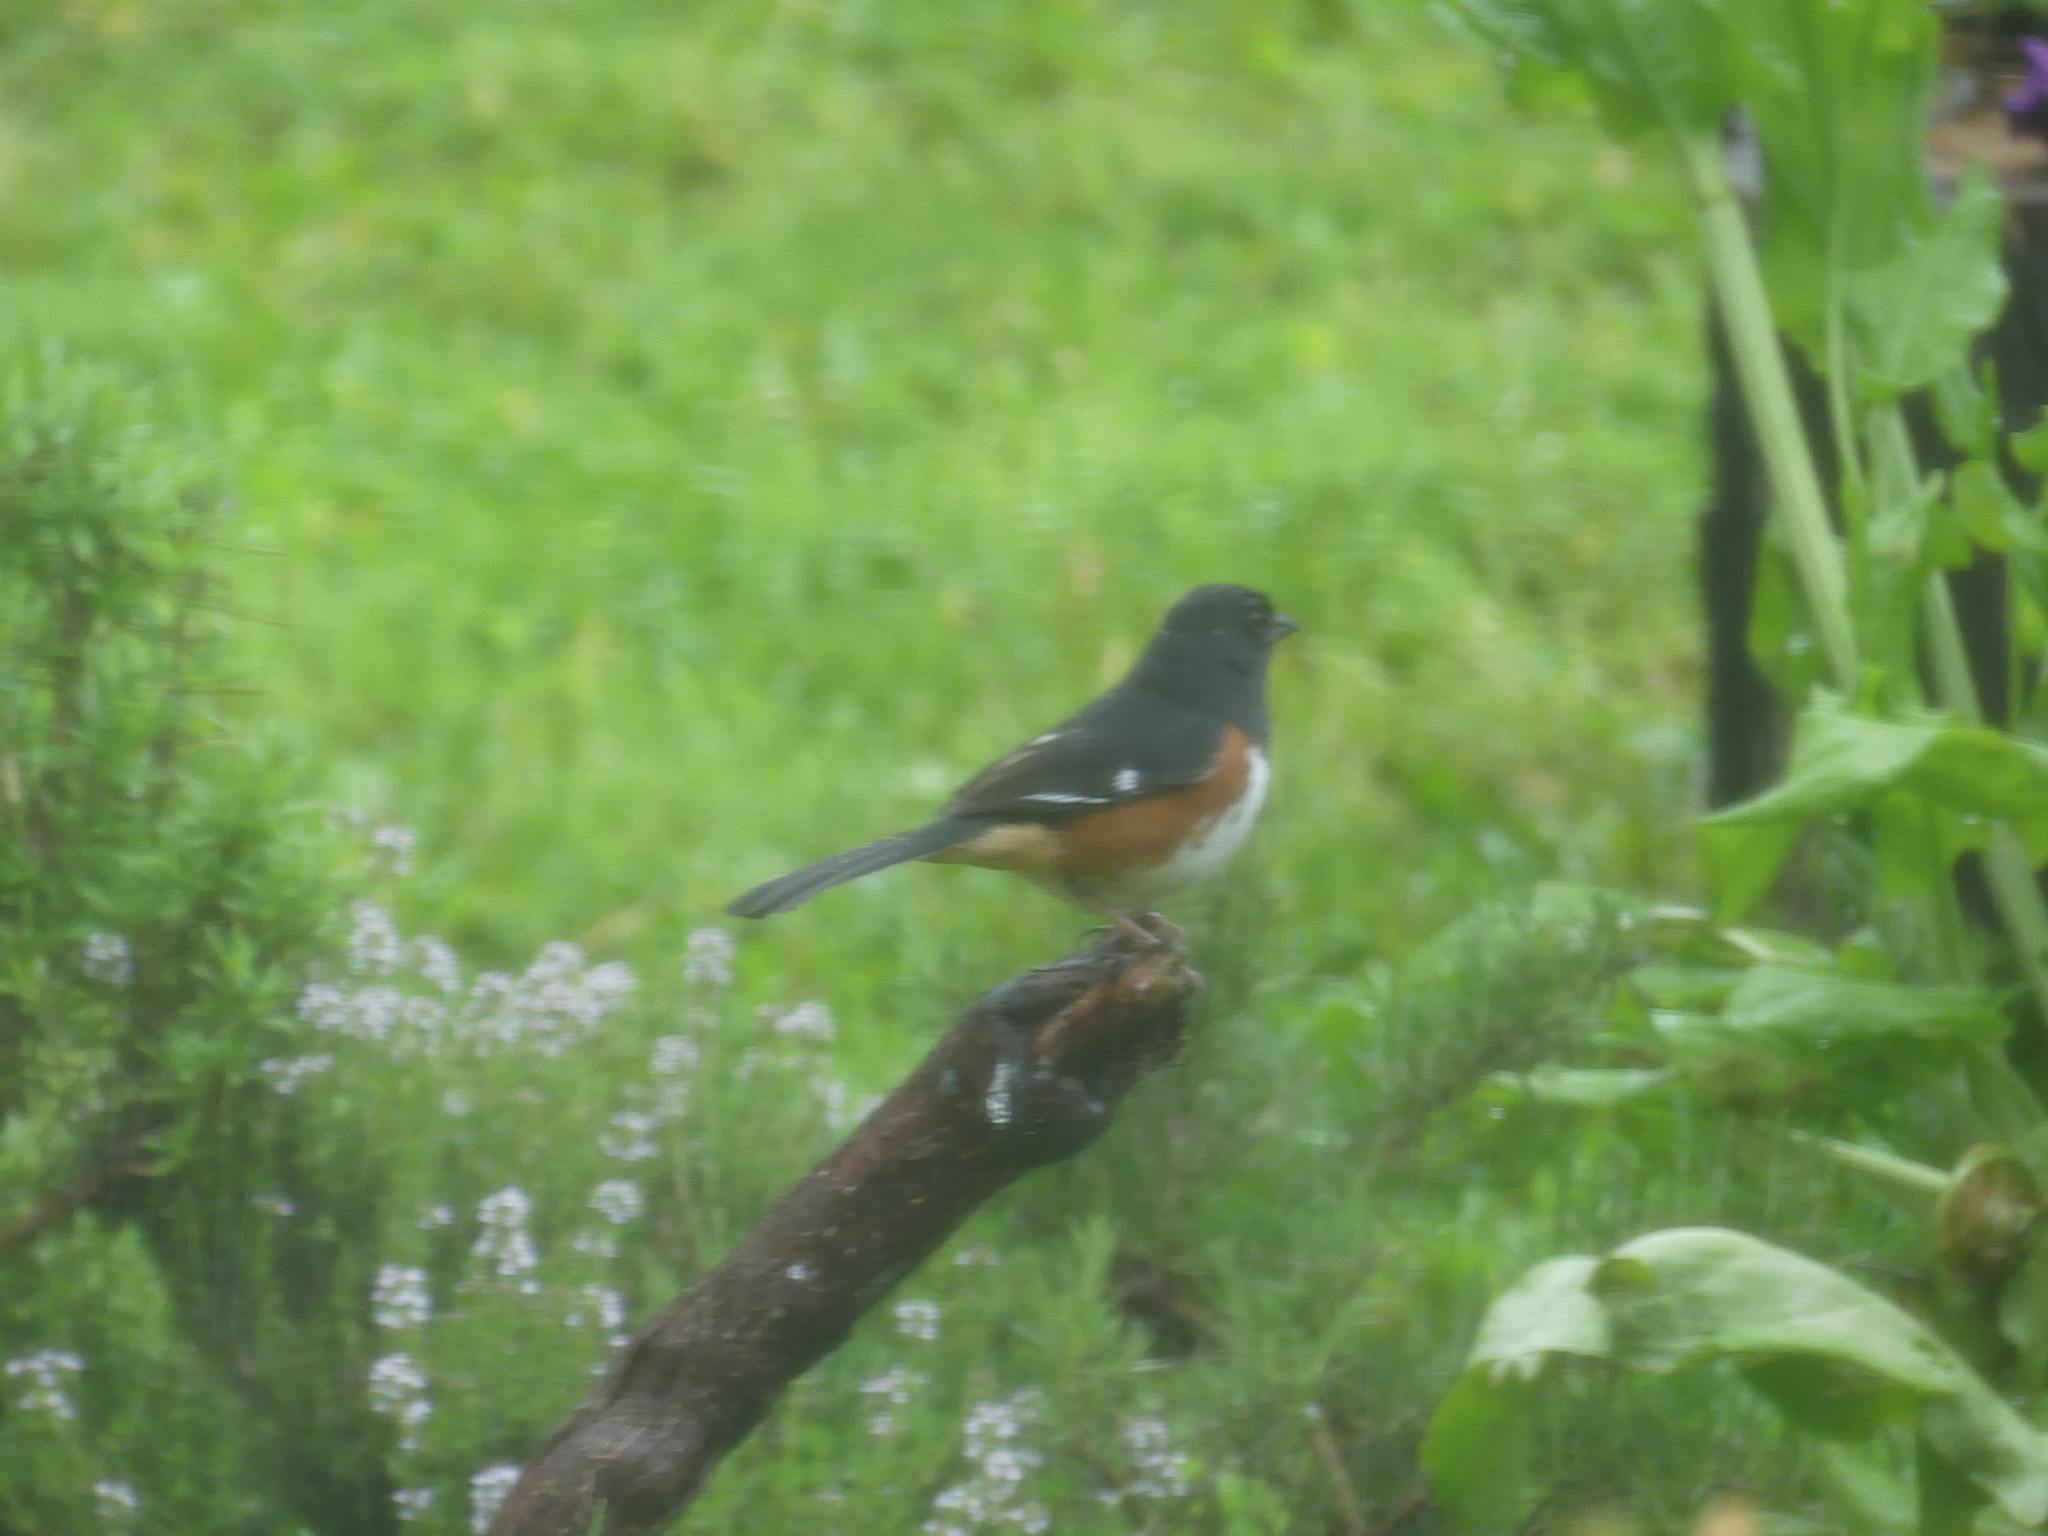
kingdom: Animalia
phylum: Chordata
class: Aves
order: Passeriformes
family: Passerellidae
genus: Pipilo
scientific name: Pipilo erythrophthalmus
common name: Eastern towhee
